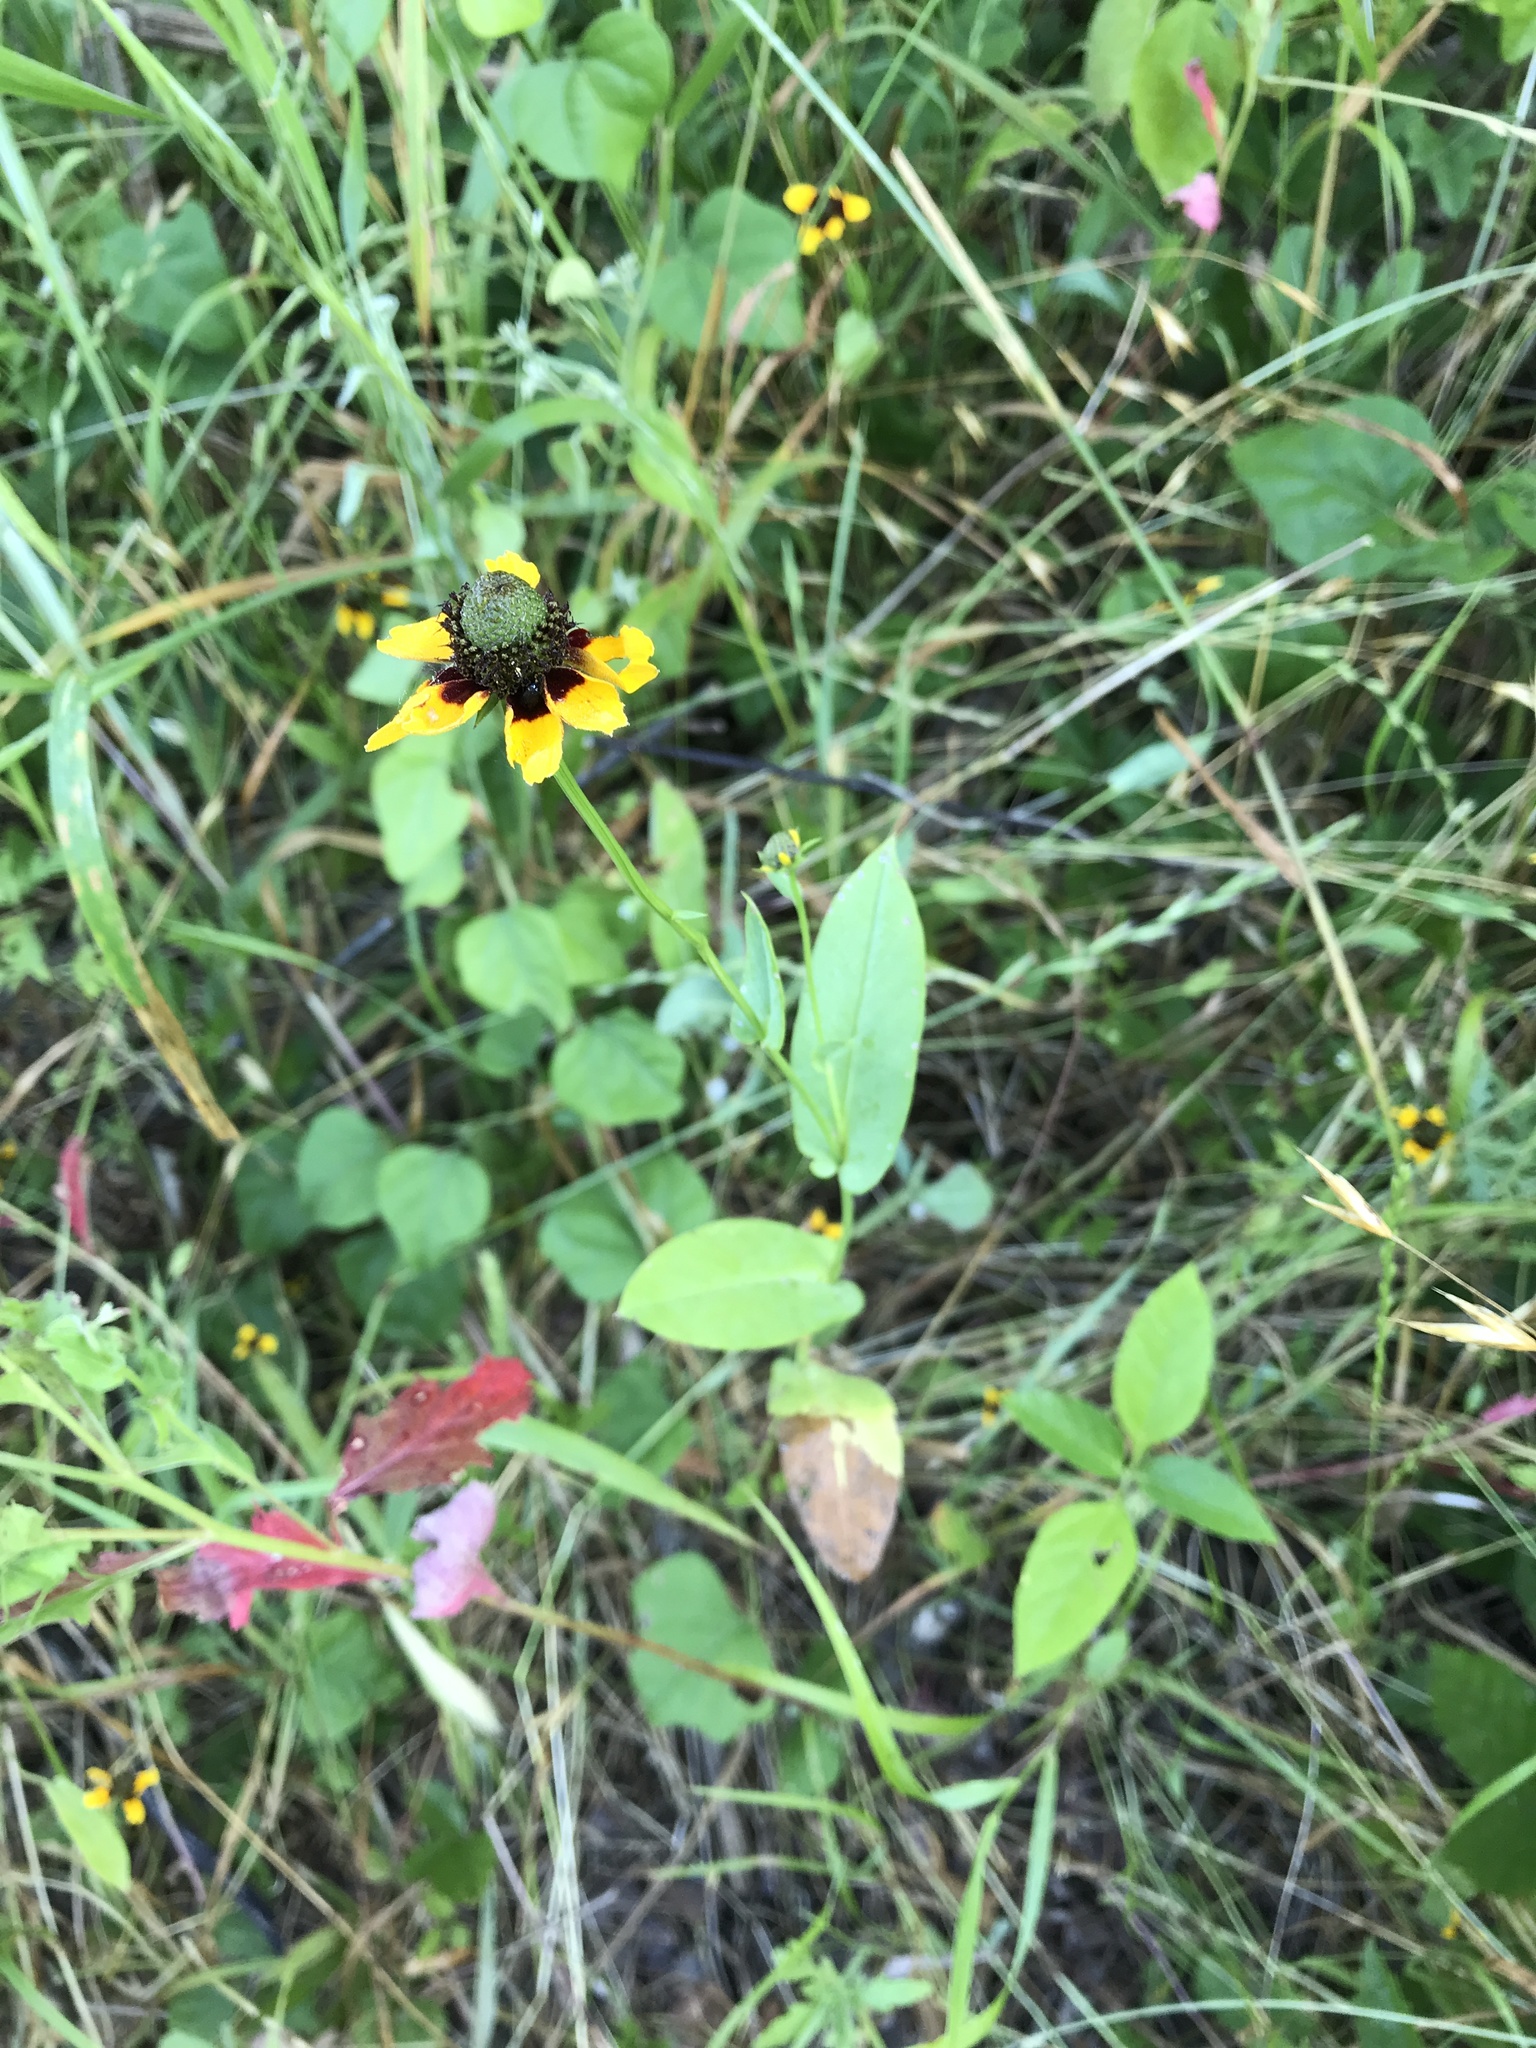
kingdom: Plantae
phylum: Tracheophyta
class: Magnoliopsida
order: Asterales
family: Asteraceae
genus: Rudbeckia
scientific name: Rudbeckia amplexicaulis
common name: Clasping-leaf coneflower
